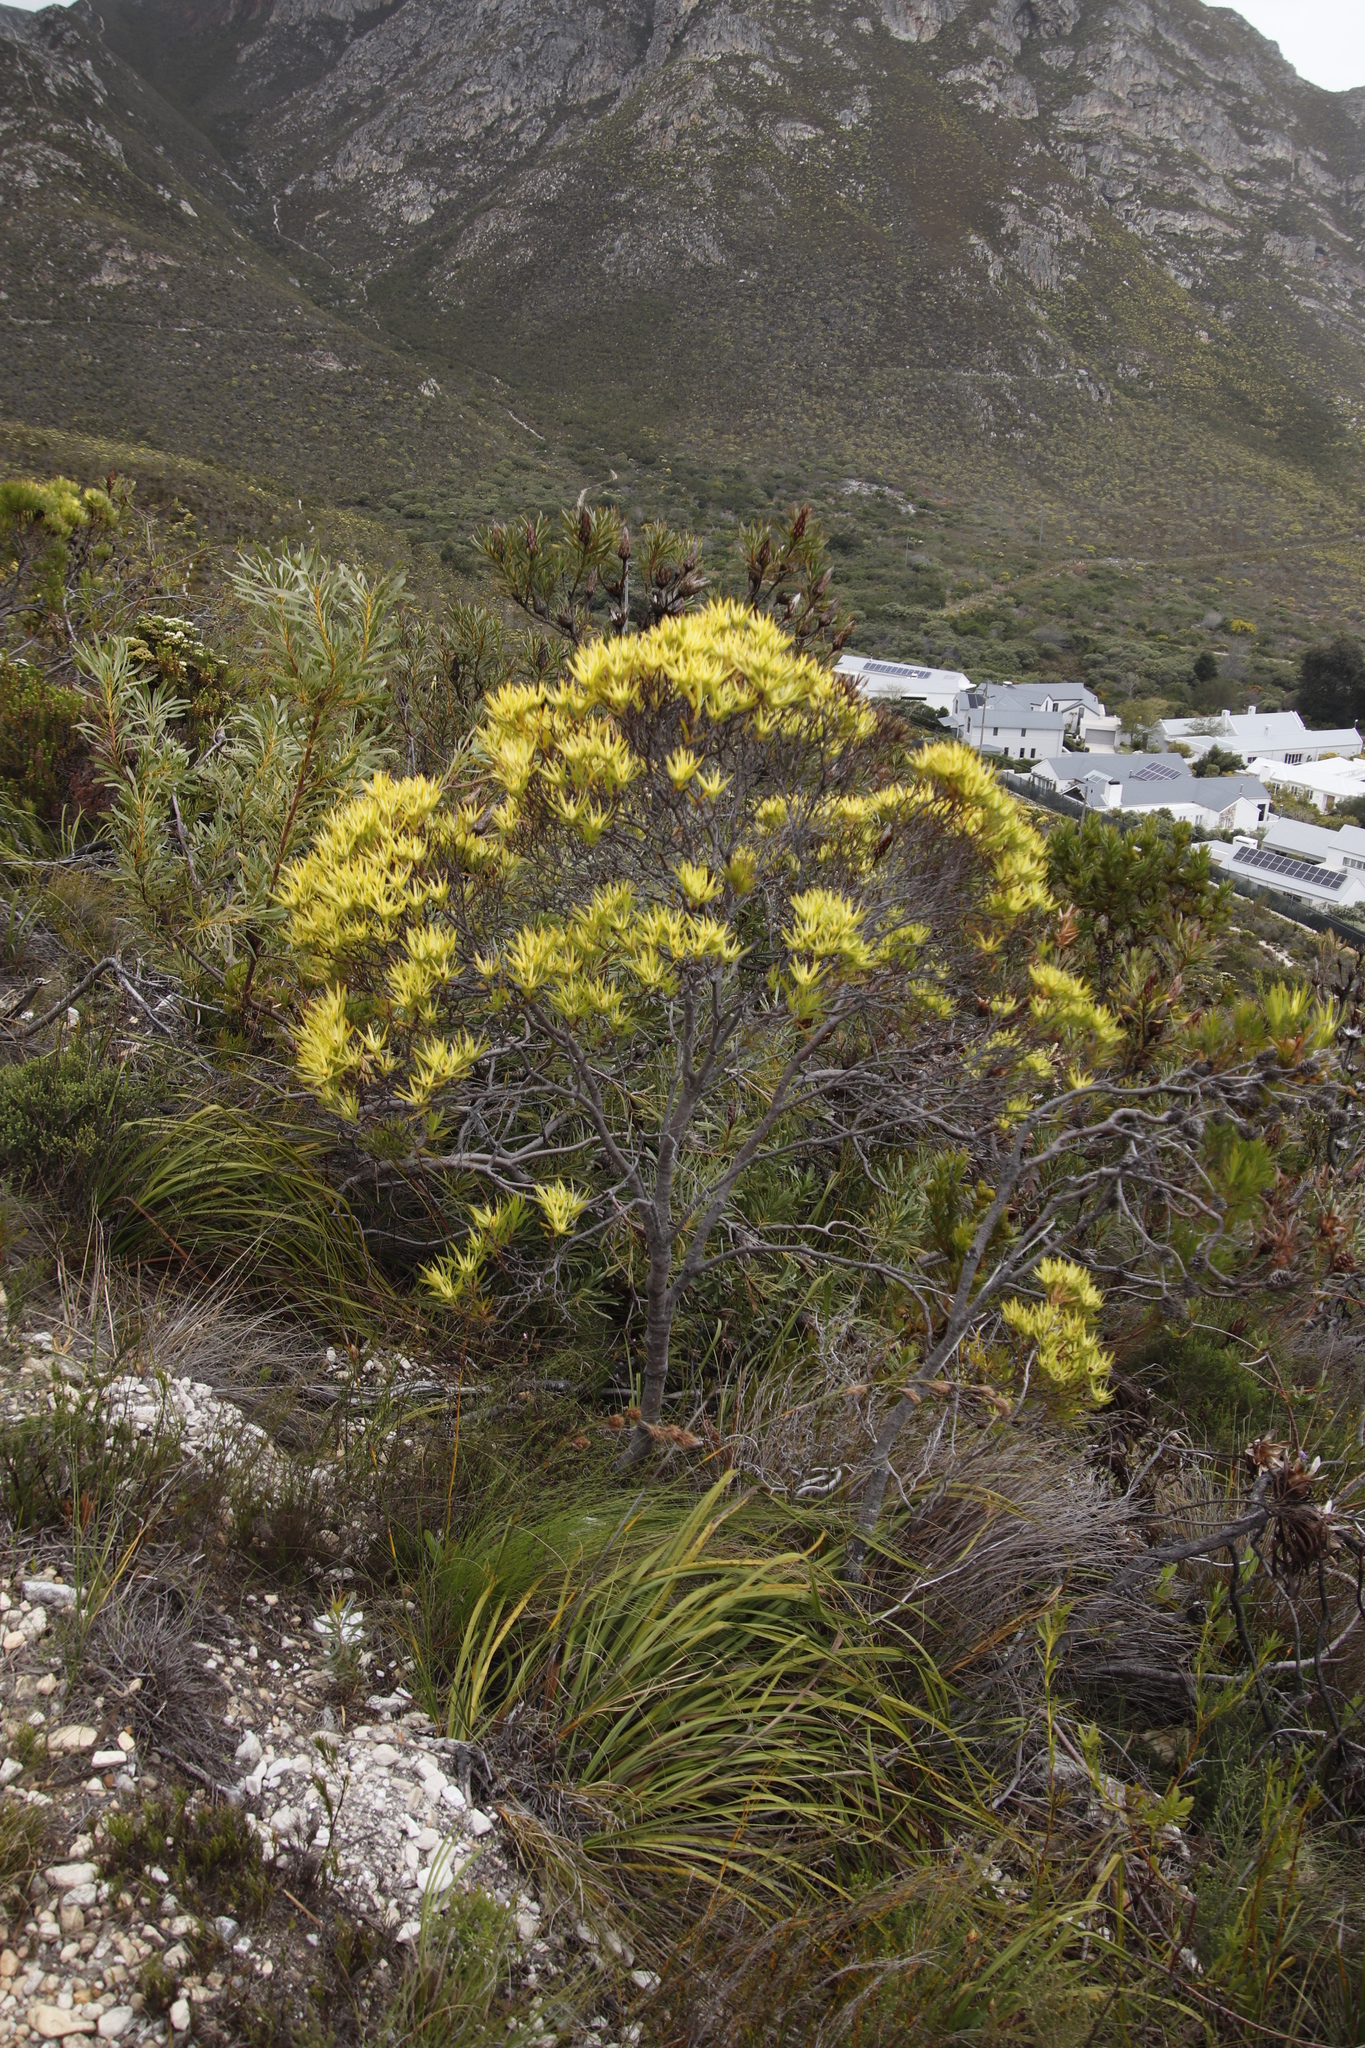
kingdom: Plantae
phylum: Tracheophyta
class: Magnoliopsida
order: Proteales
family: Proteaceae
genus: Leucadendron
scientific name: Leucadendron xanthoconus
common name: Sickle-leaf conebush
